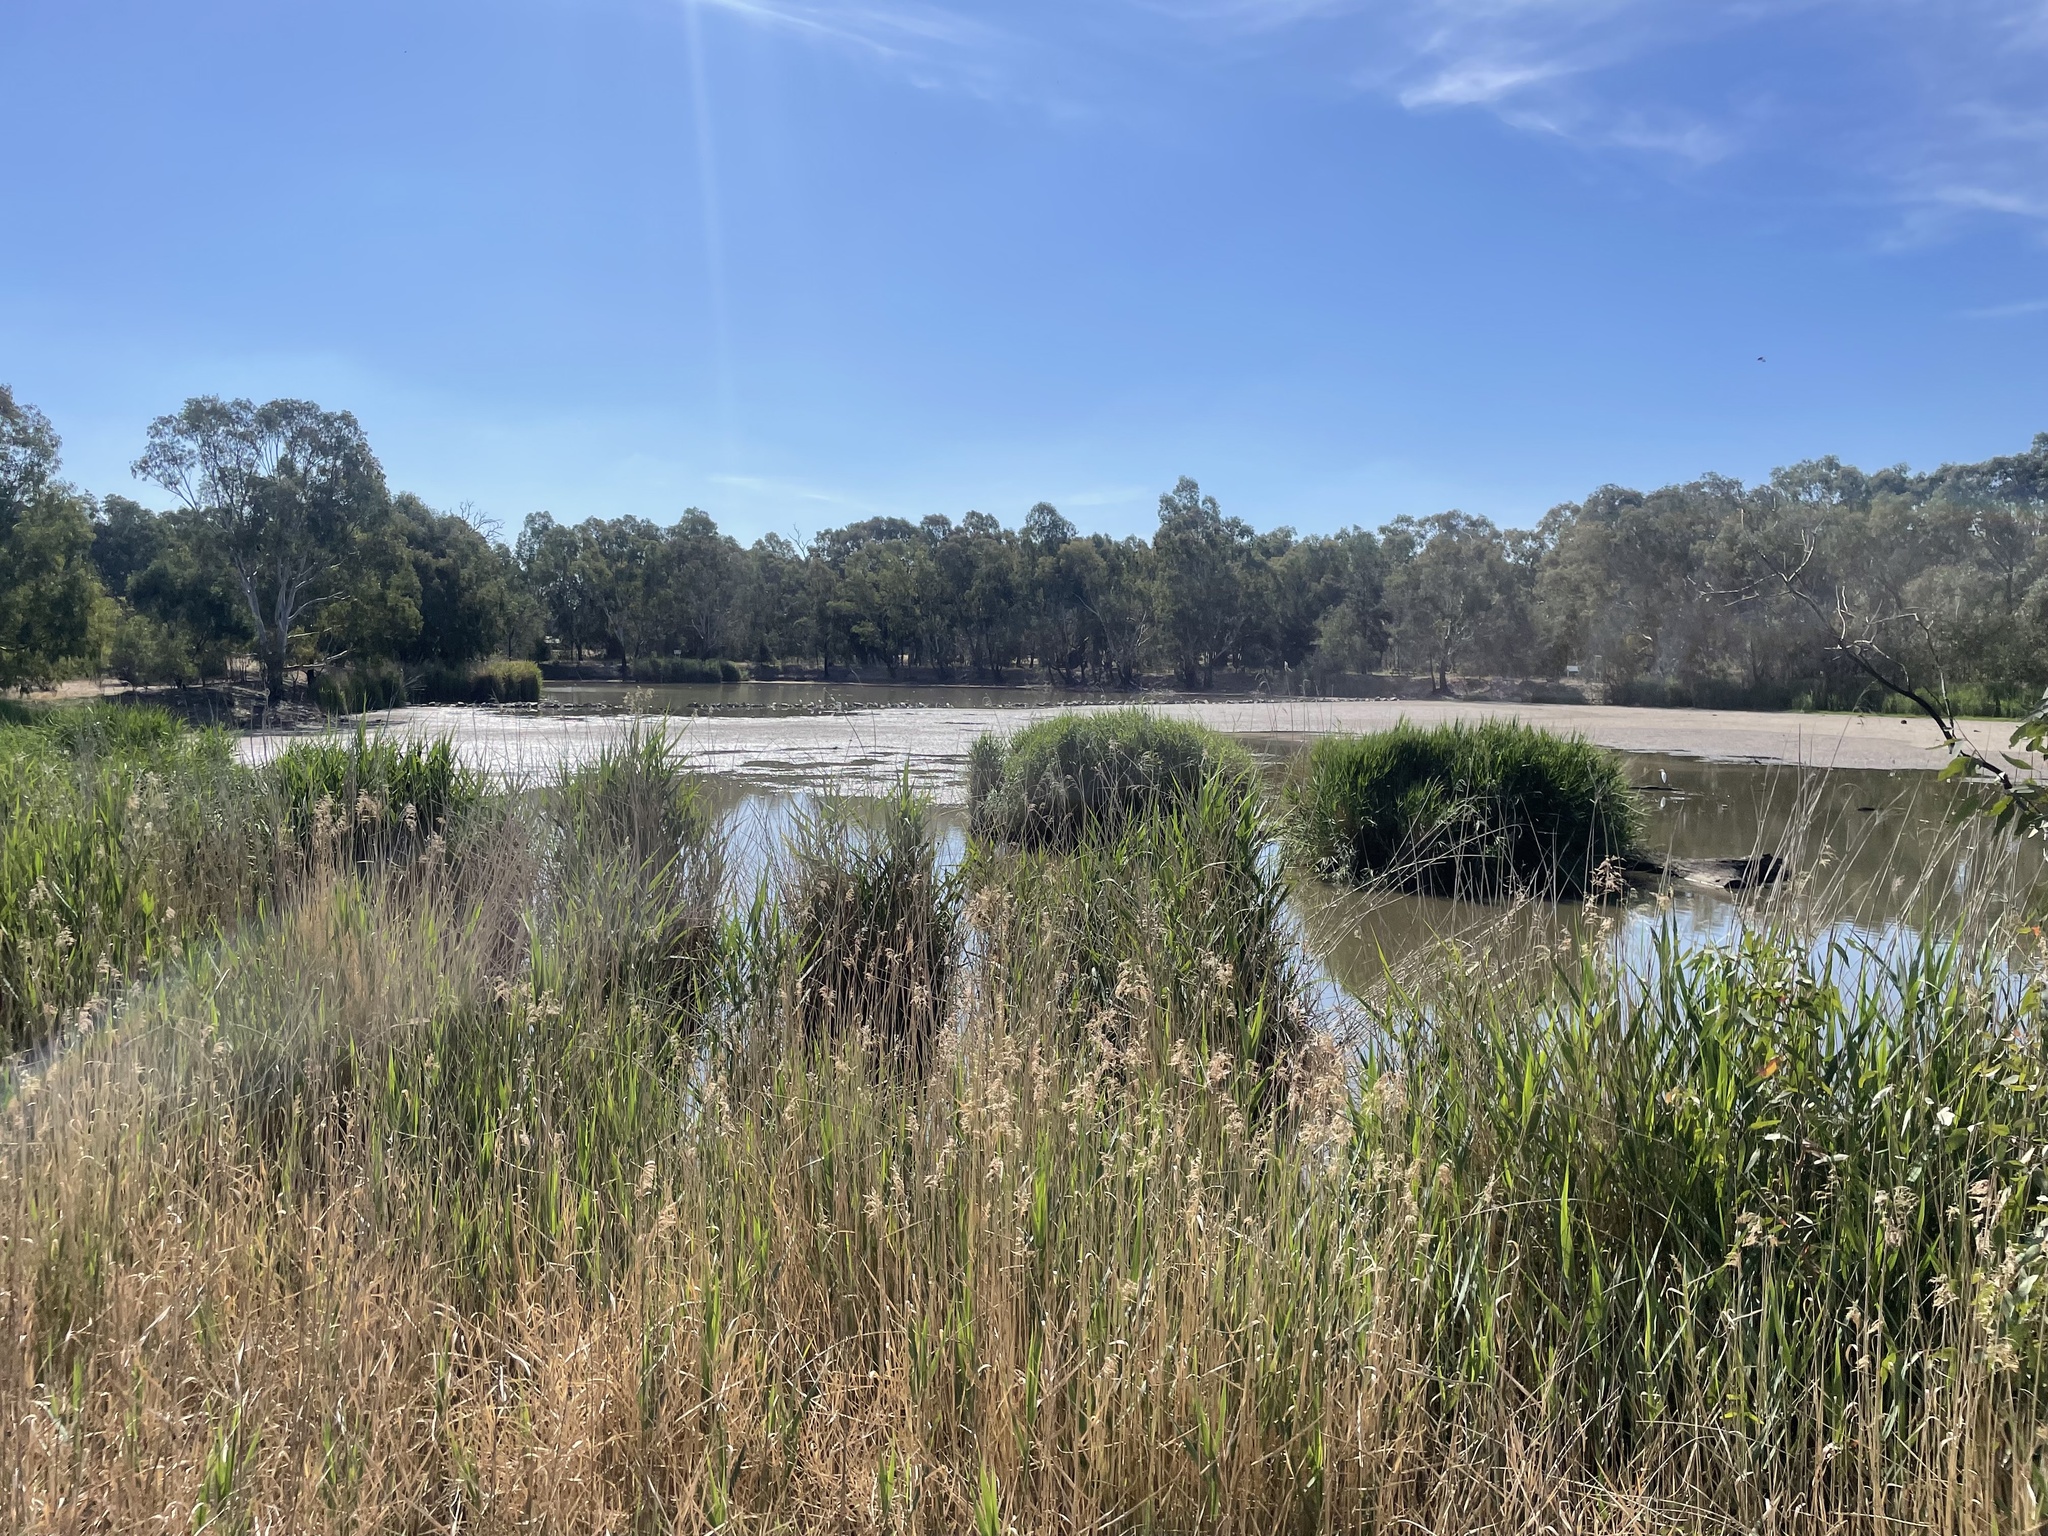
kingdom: Plantae
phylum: Tracheophyta
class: Liliopsida
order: Poales
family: Poaceae
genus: Phragmites
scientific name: Phragmites australis
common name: Common reed
